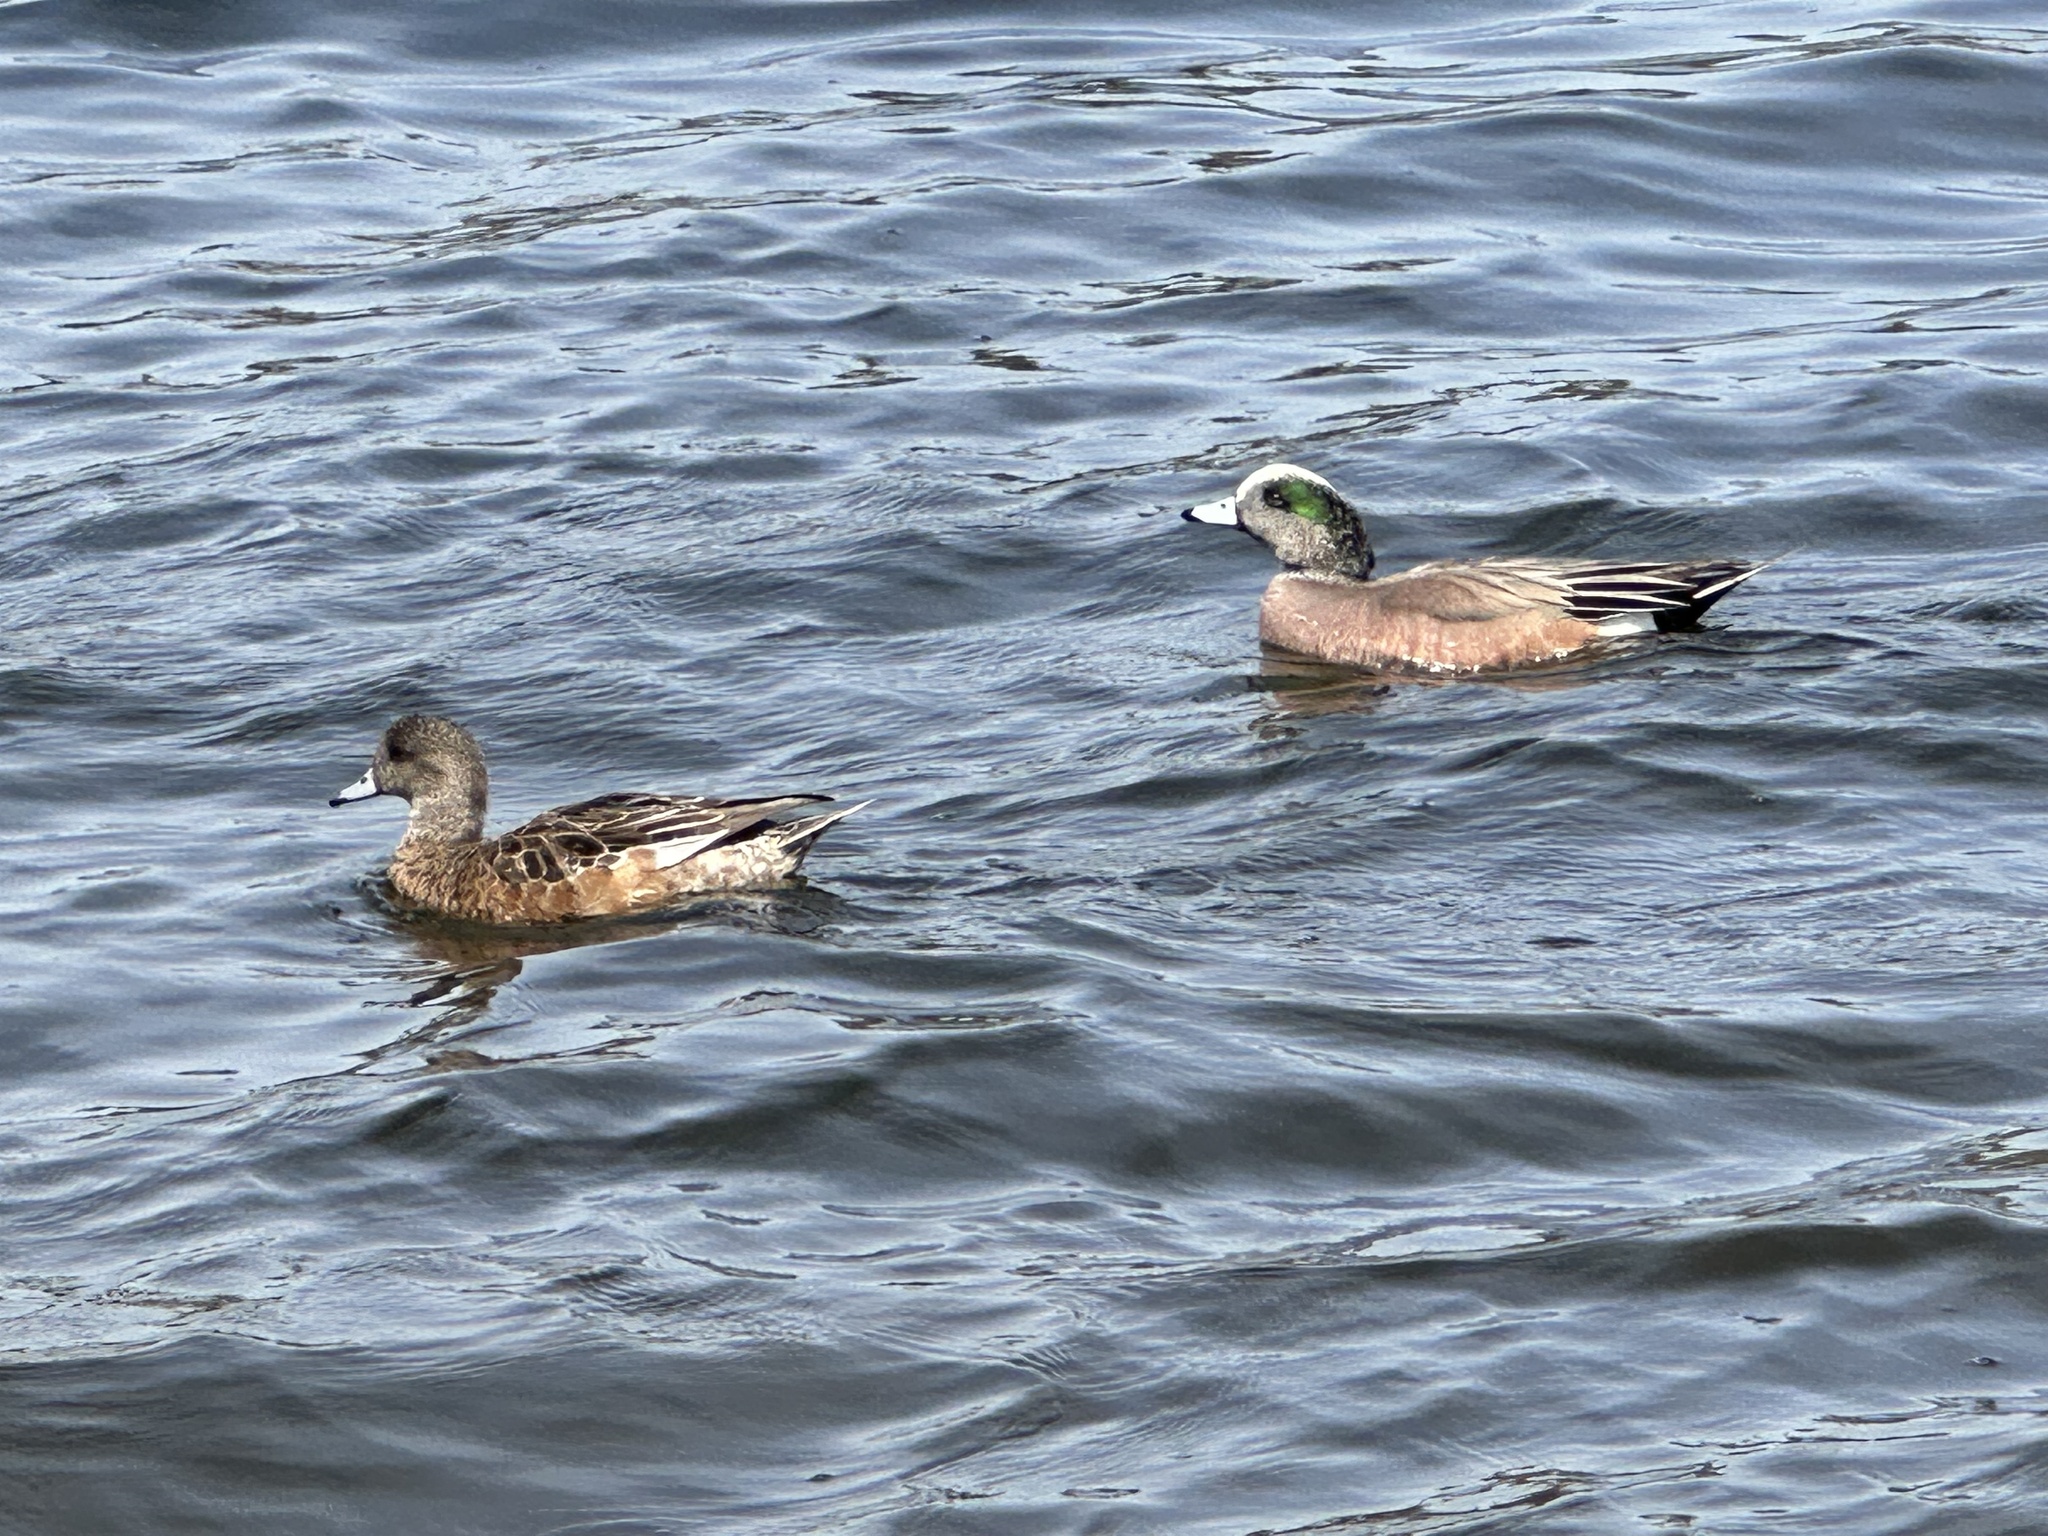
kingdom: Animalia
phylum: Chordata
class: Aves
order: Anseriformes
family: Anatidae
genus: Mareca
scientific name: Mareca americana
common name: American wigeon
